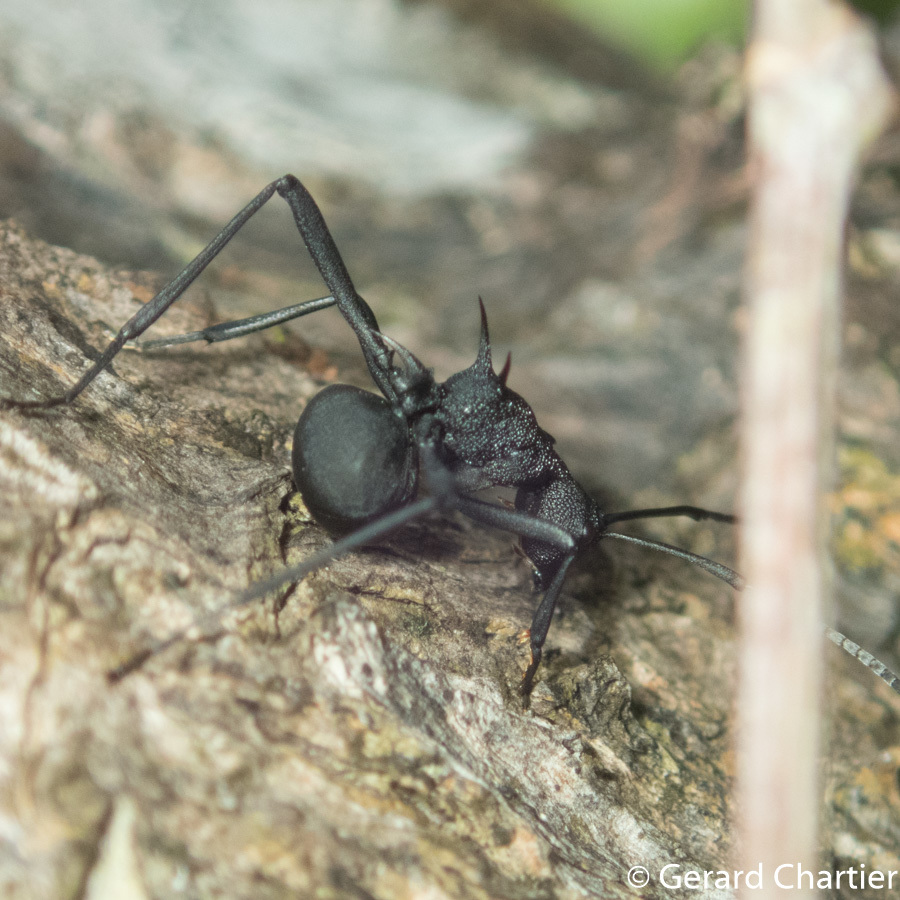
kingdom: Animalia
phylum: Arthropoda
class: Insecta
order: Hymenoptera
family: Formicidae
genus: Polyrhachis
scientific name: Polyrhachis armata
